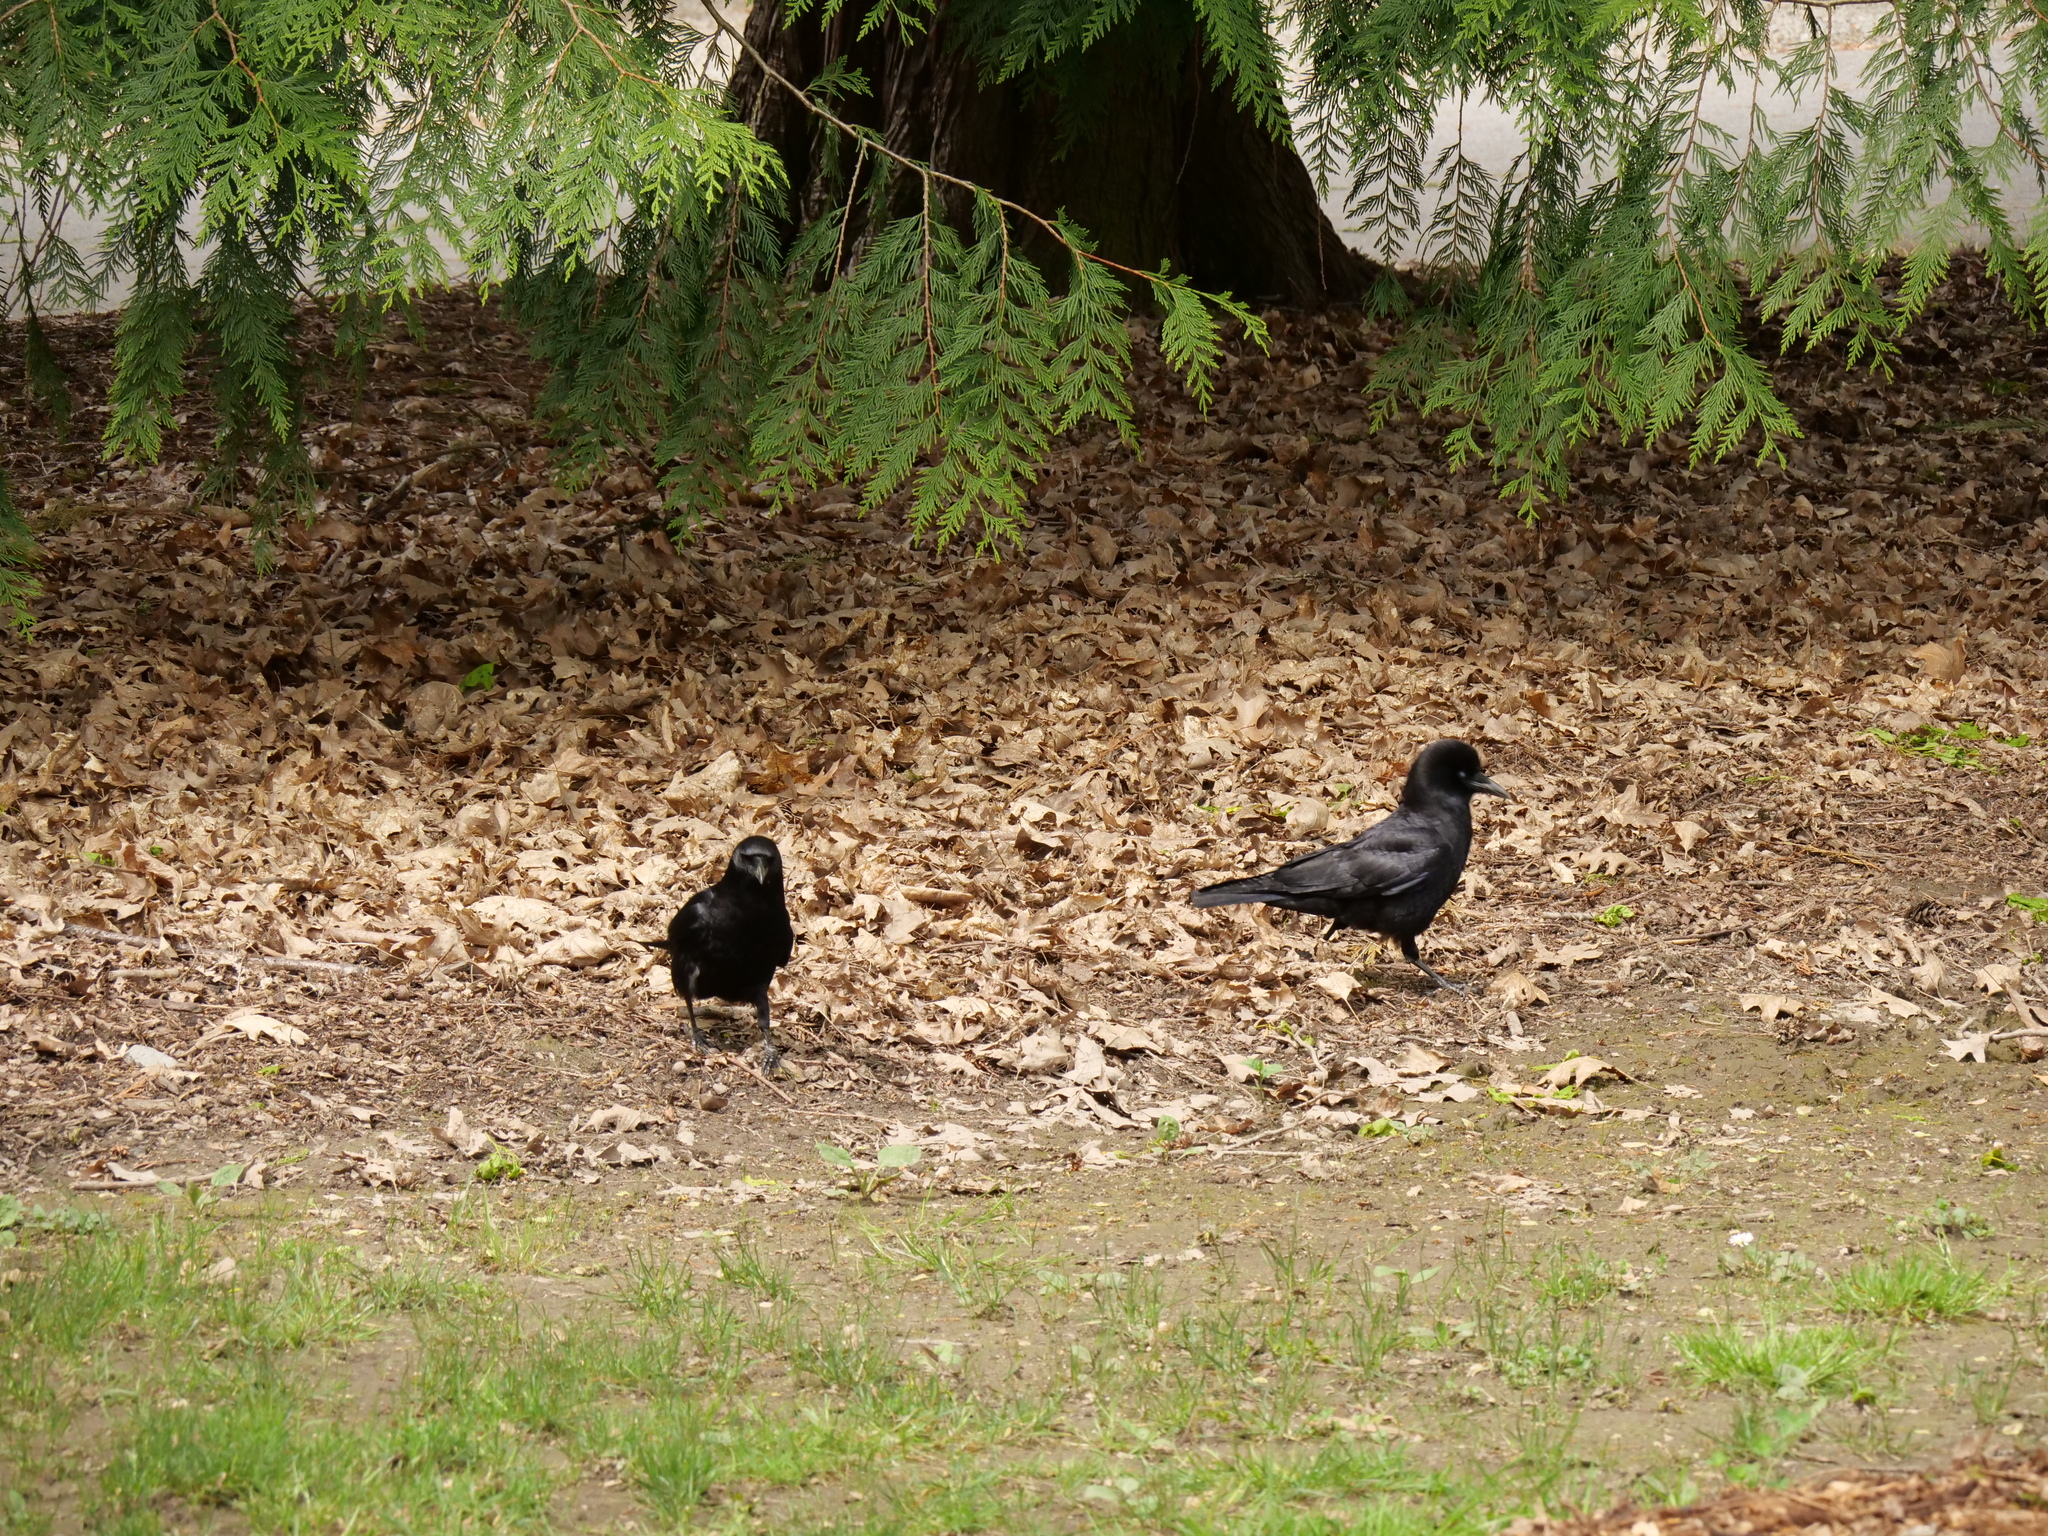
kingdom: Animalia
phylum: Chordata
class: Aves
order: Passeriformes
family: Corvidae
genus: Corvus
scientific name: Corvus brachyrhynchos
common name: American crow
